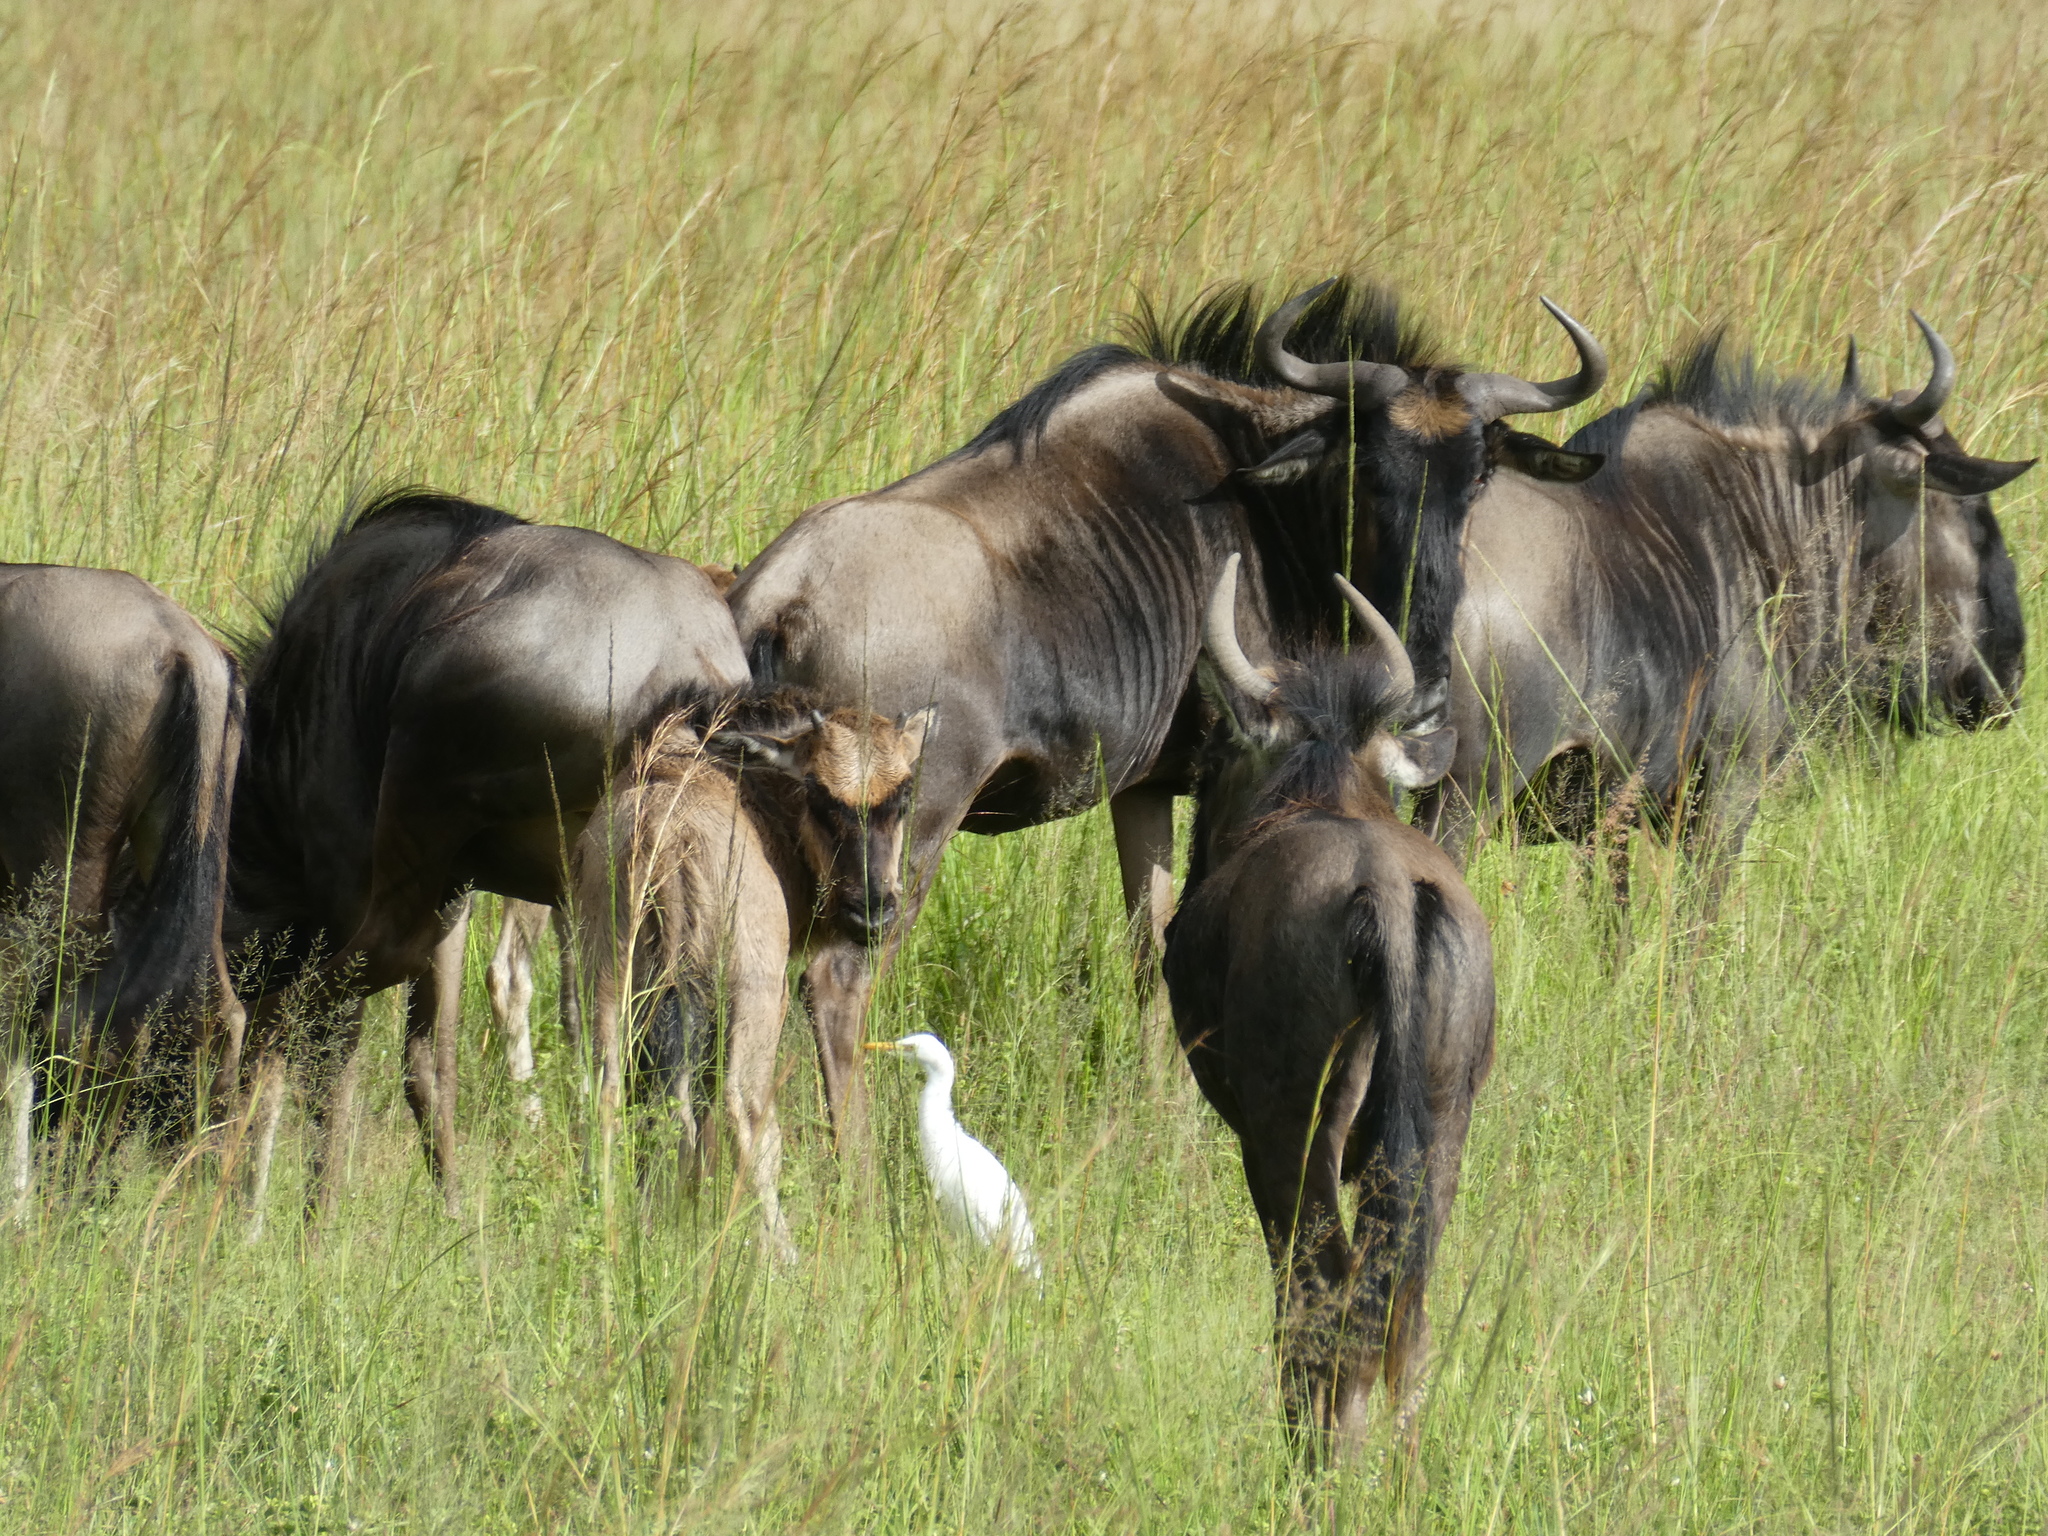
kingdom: Animalia
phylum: Chordata
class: Mammalia
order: Artiodactyla
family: Bovidae
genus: Connochaetes
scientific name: Connochaetes taurinus
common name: Blue wildebeest
